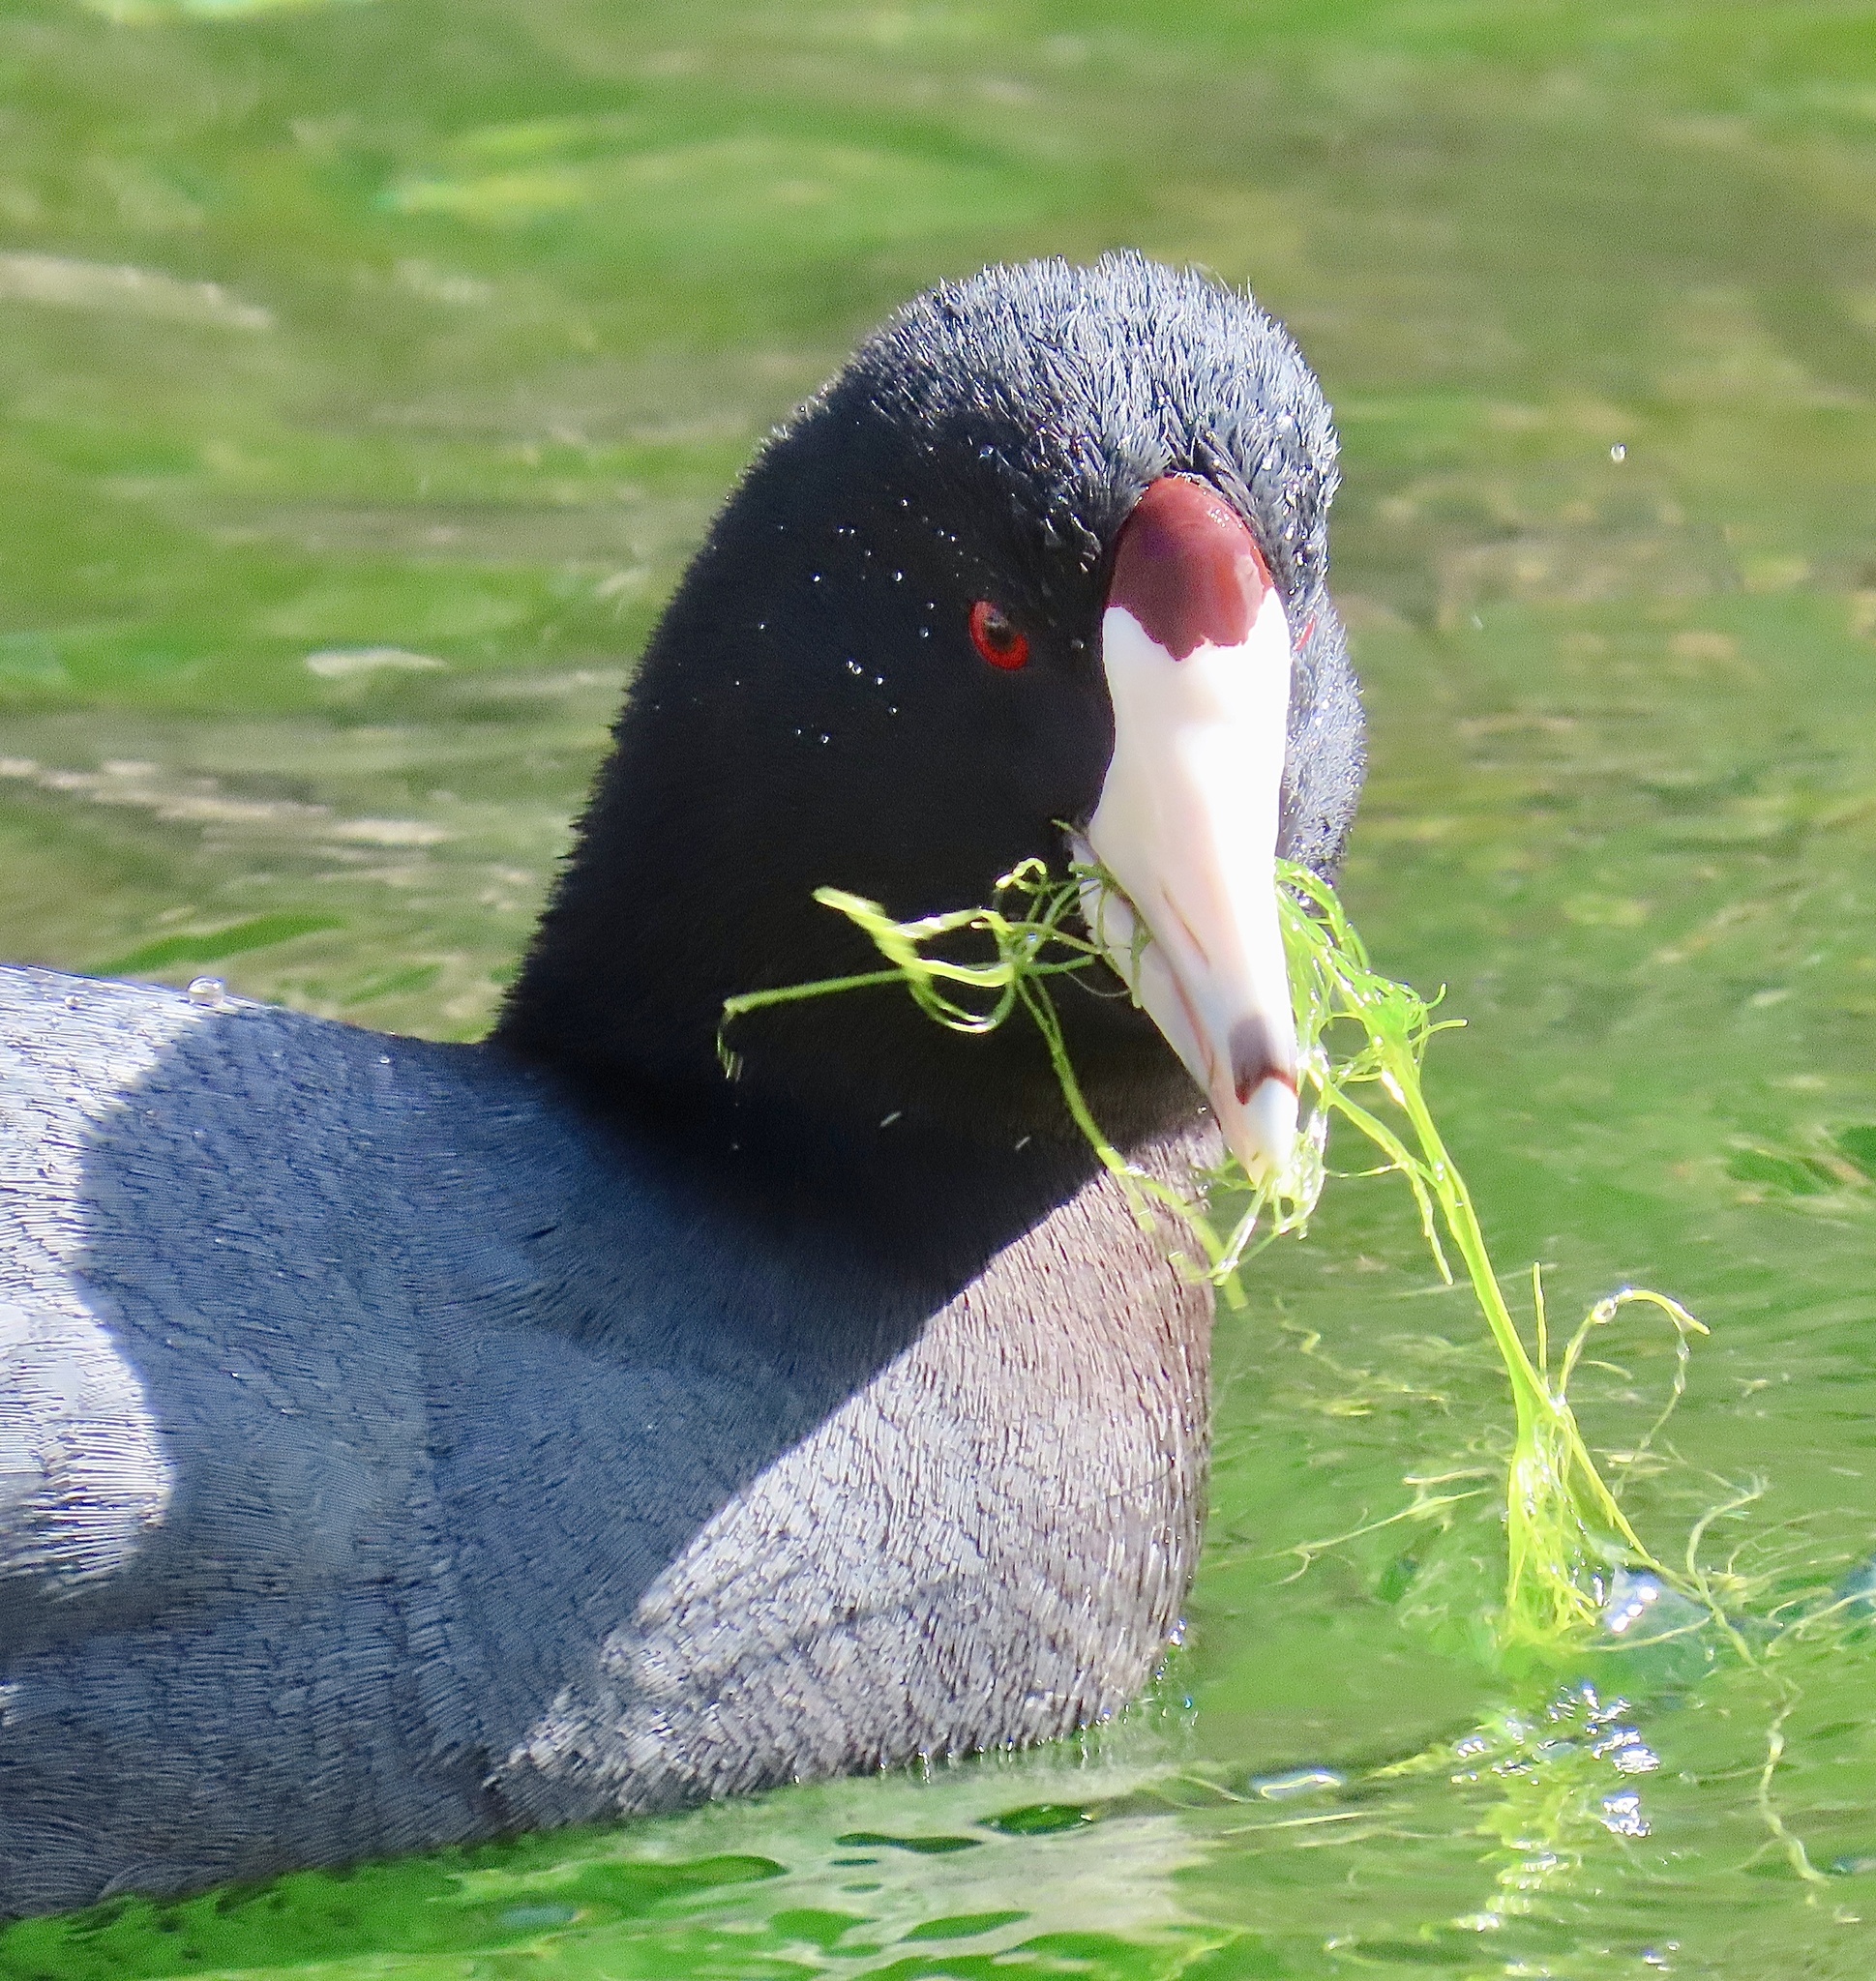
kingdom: Animalia
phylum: Chordata
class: Aves
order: Gruiformes
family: Rallidae
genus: Fulica
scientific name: Fulica americana
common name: American coot
